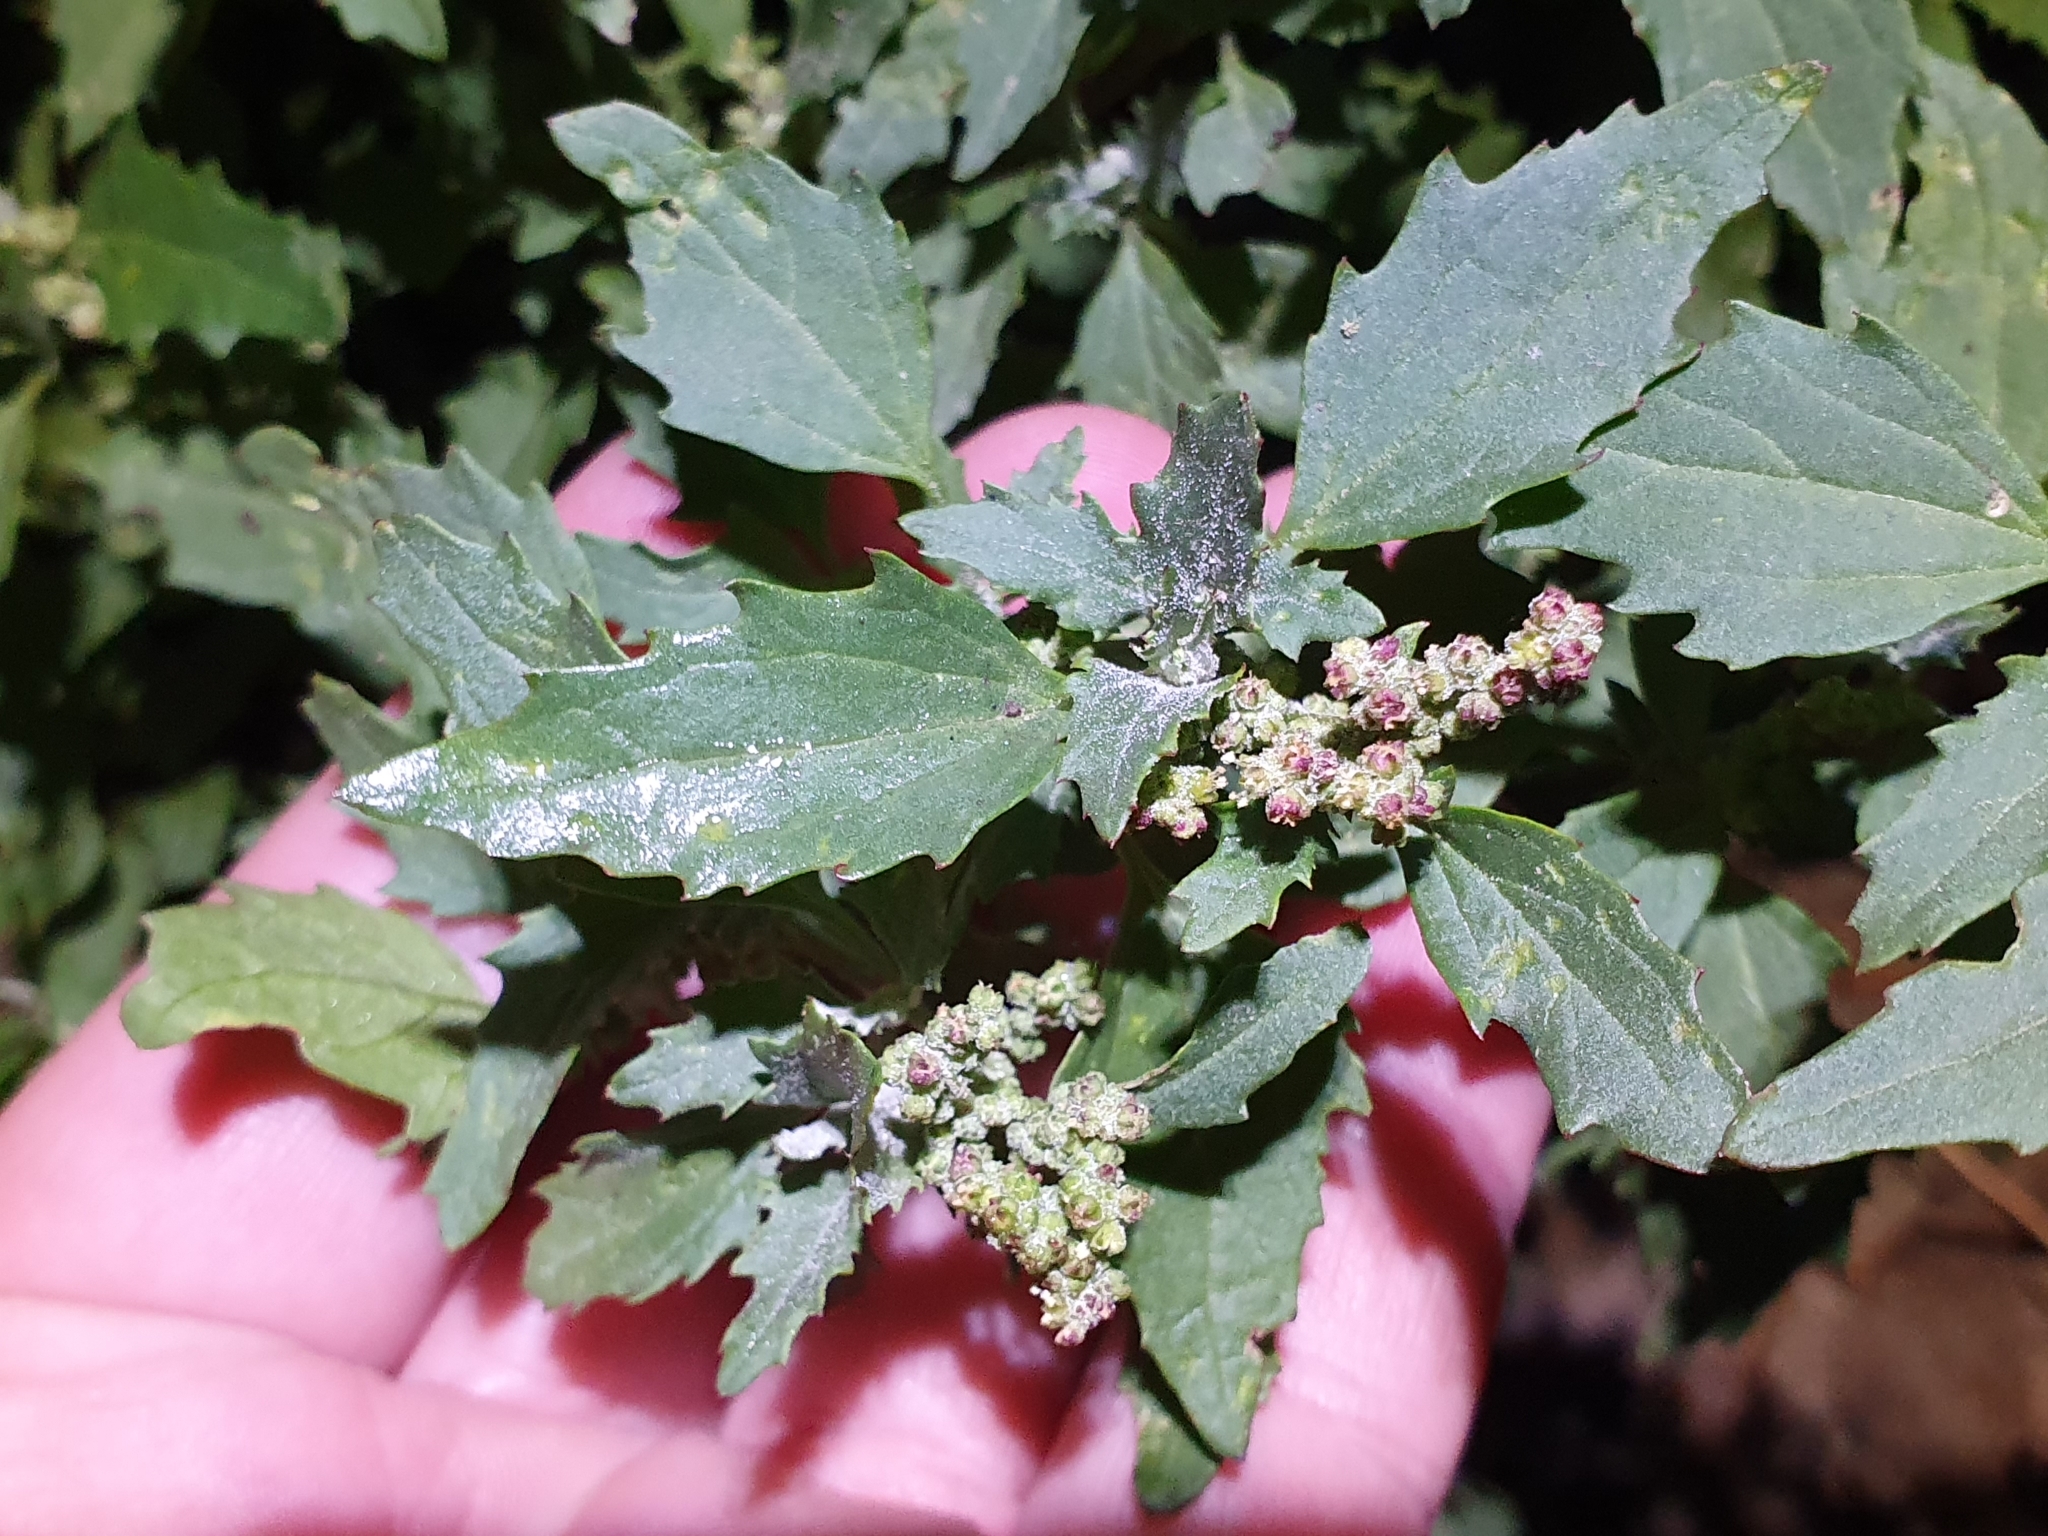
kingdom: Plantae
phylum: Tracheophyta
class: Magnoliopsida
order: Caryophyllales
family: Amaranthaceae
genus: Chenopodiastrum
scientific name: Chenopodiastrum murale
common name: Sowbane
